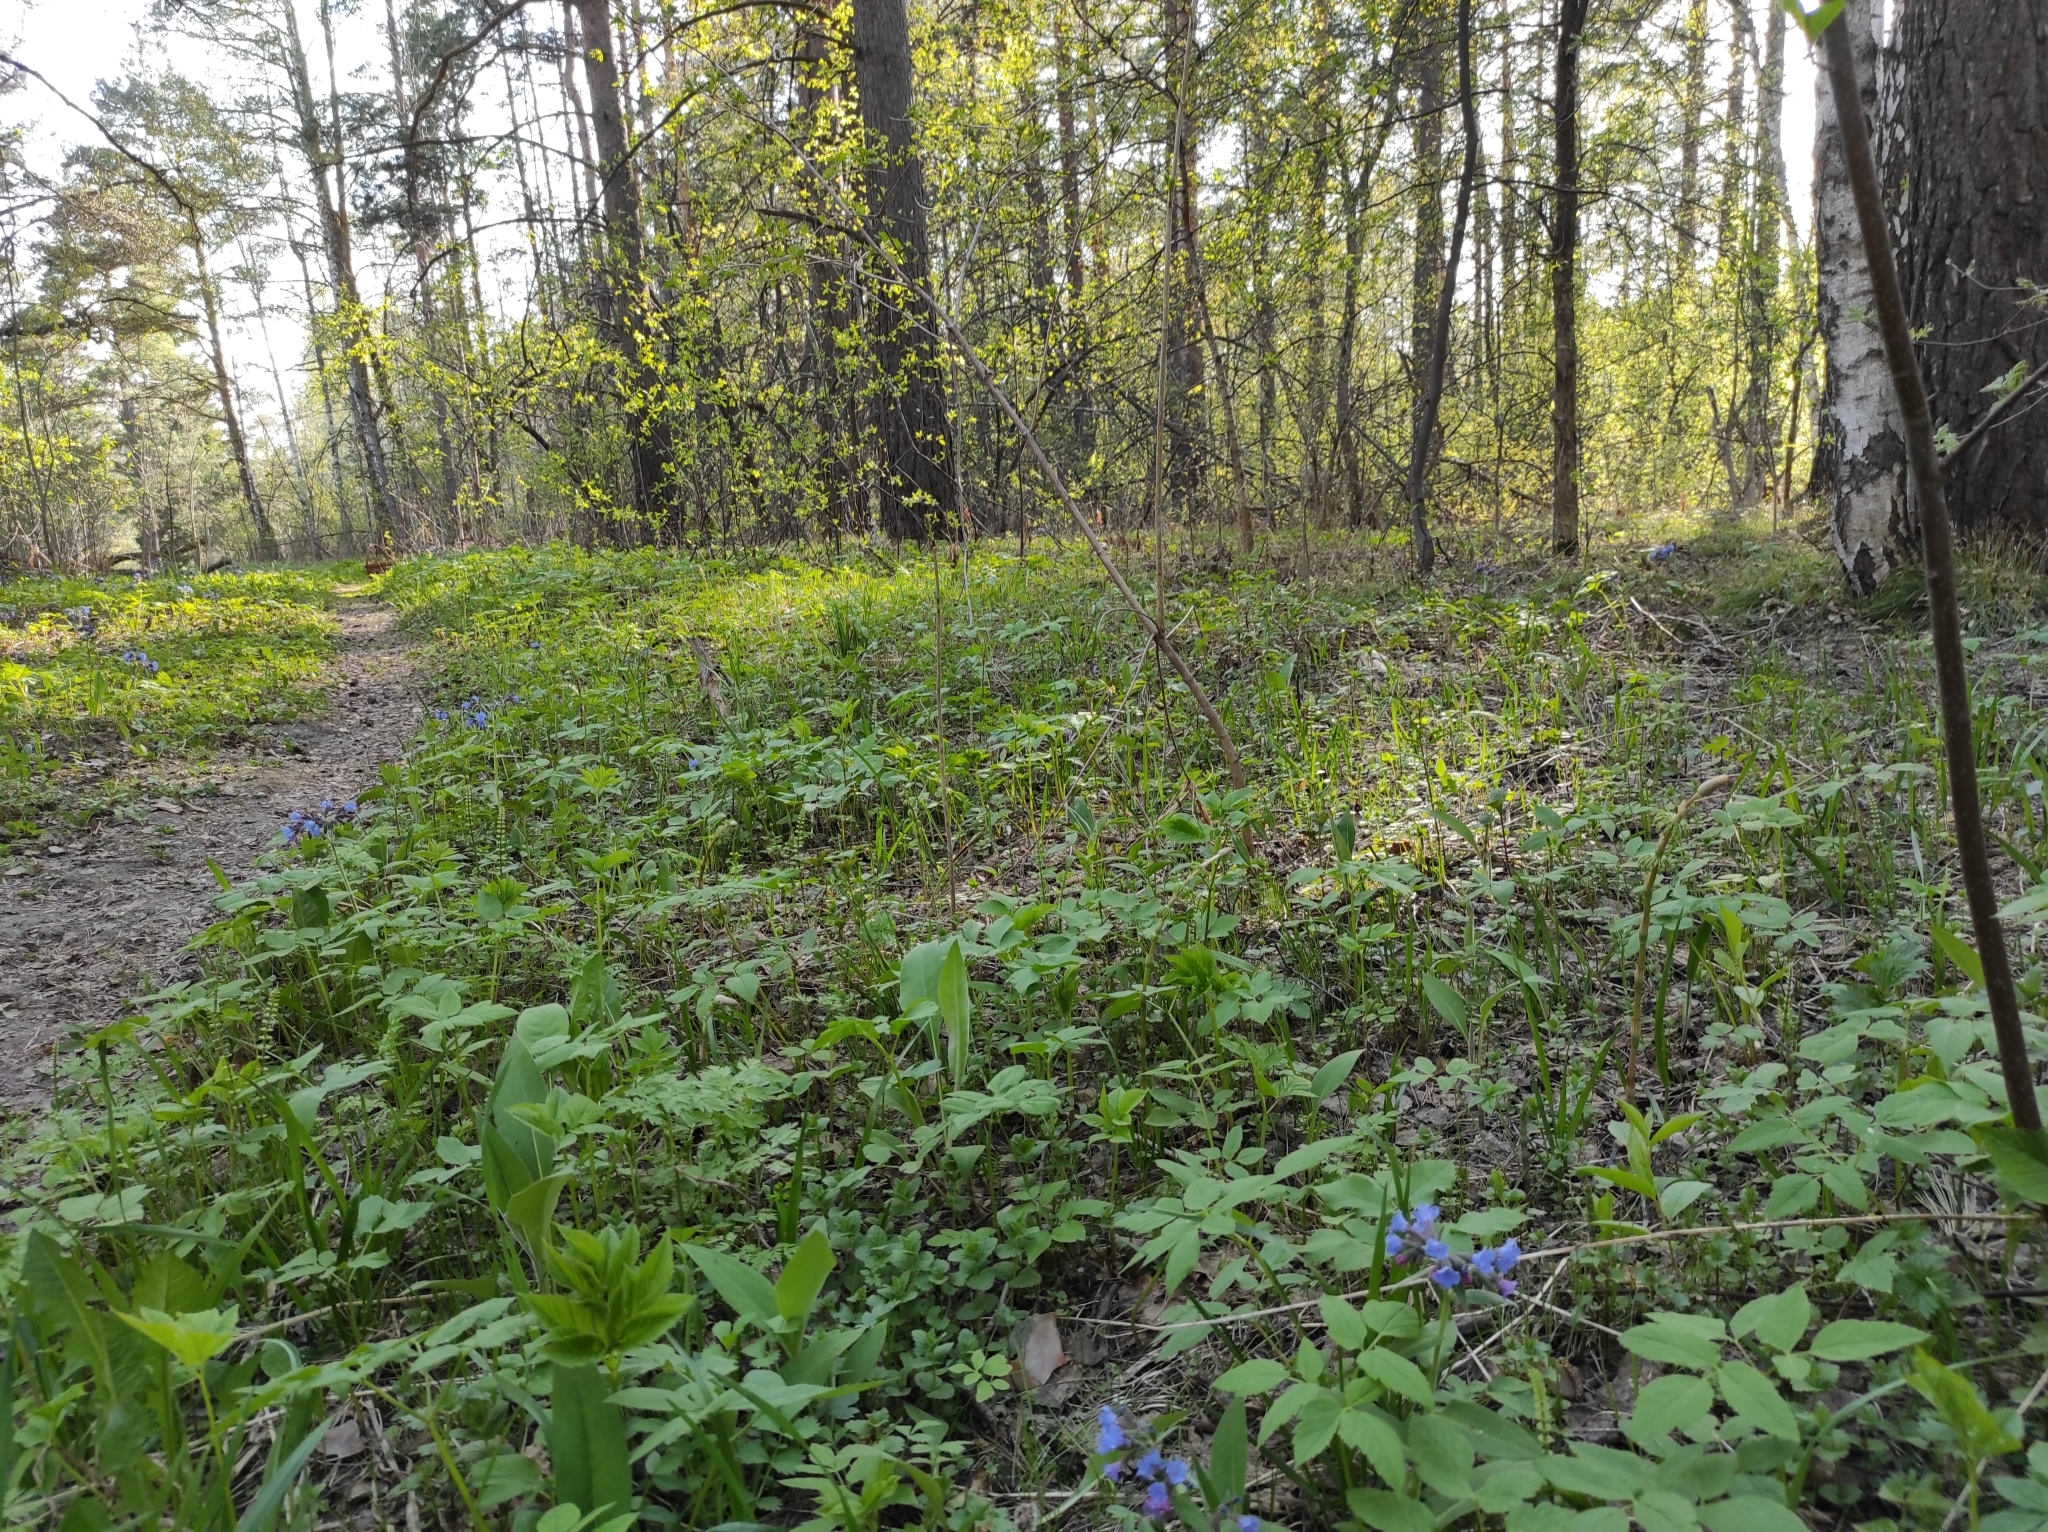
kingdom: Plantae
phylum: Tracheophyta
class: Polypodiopsida
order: Equisetales
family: Equisetaceae
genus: Equisetum
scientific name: Equisetum sylvaticum
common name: Wood horsetail
